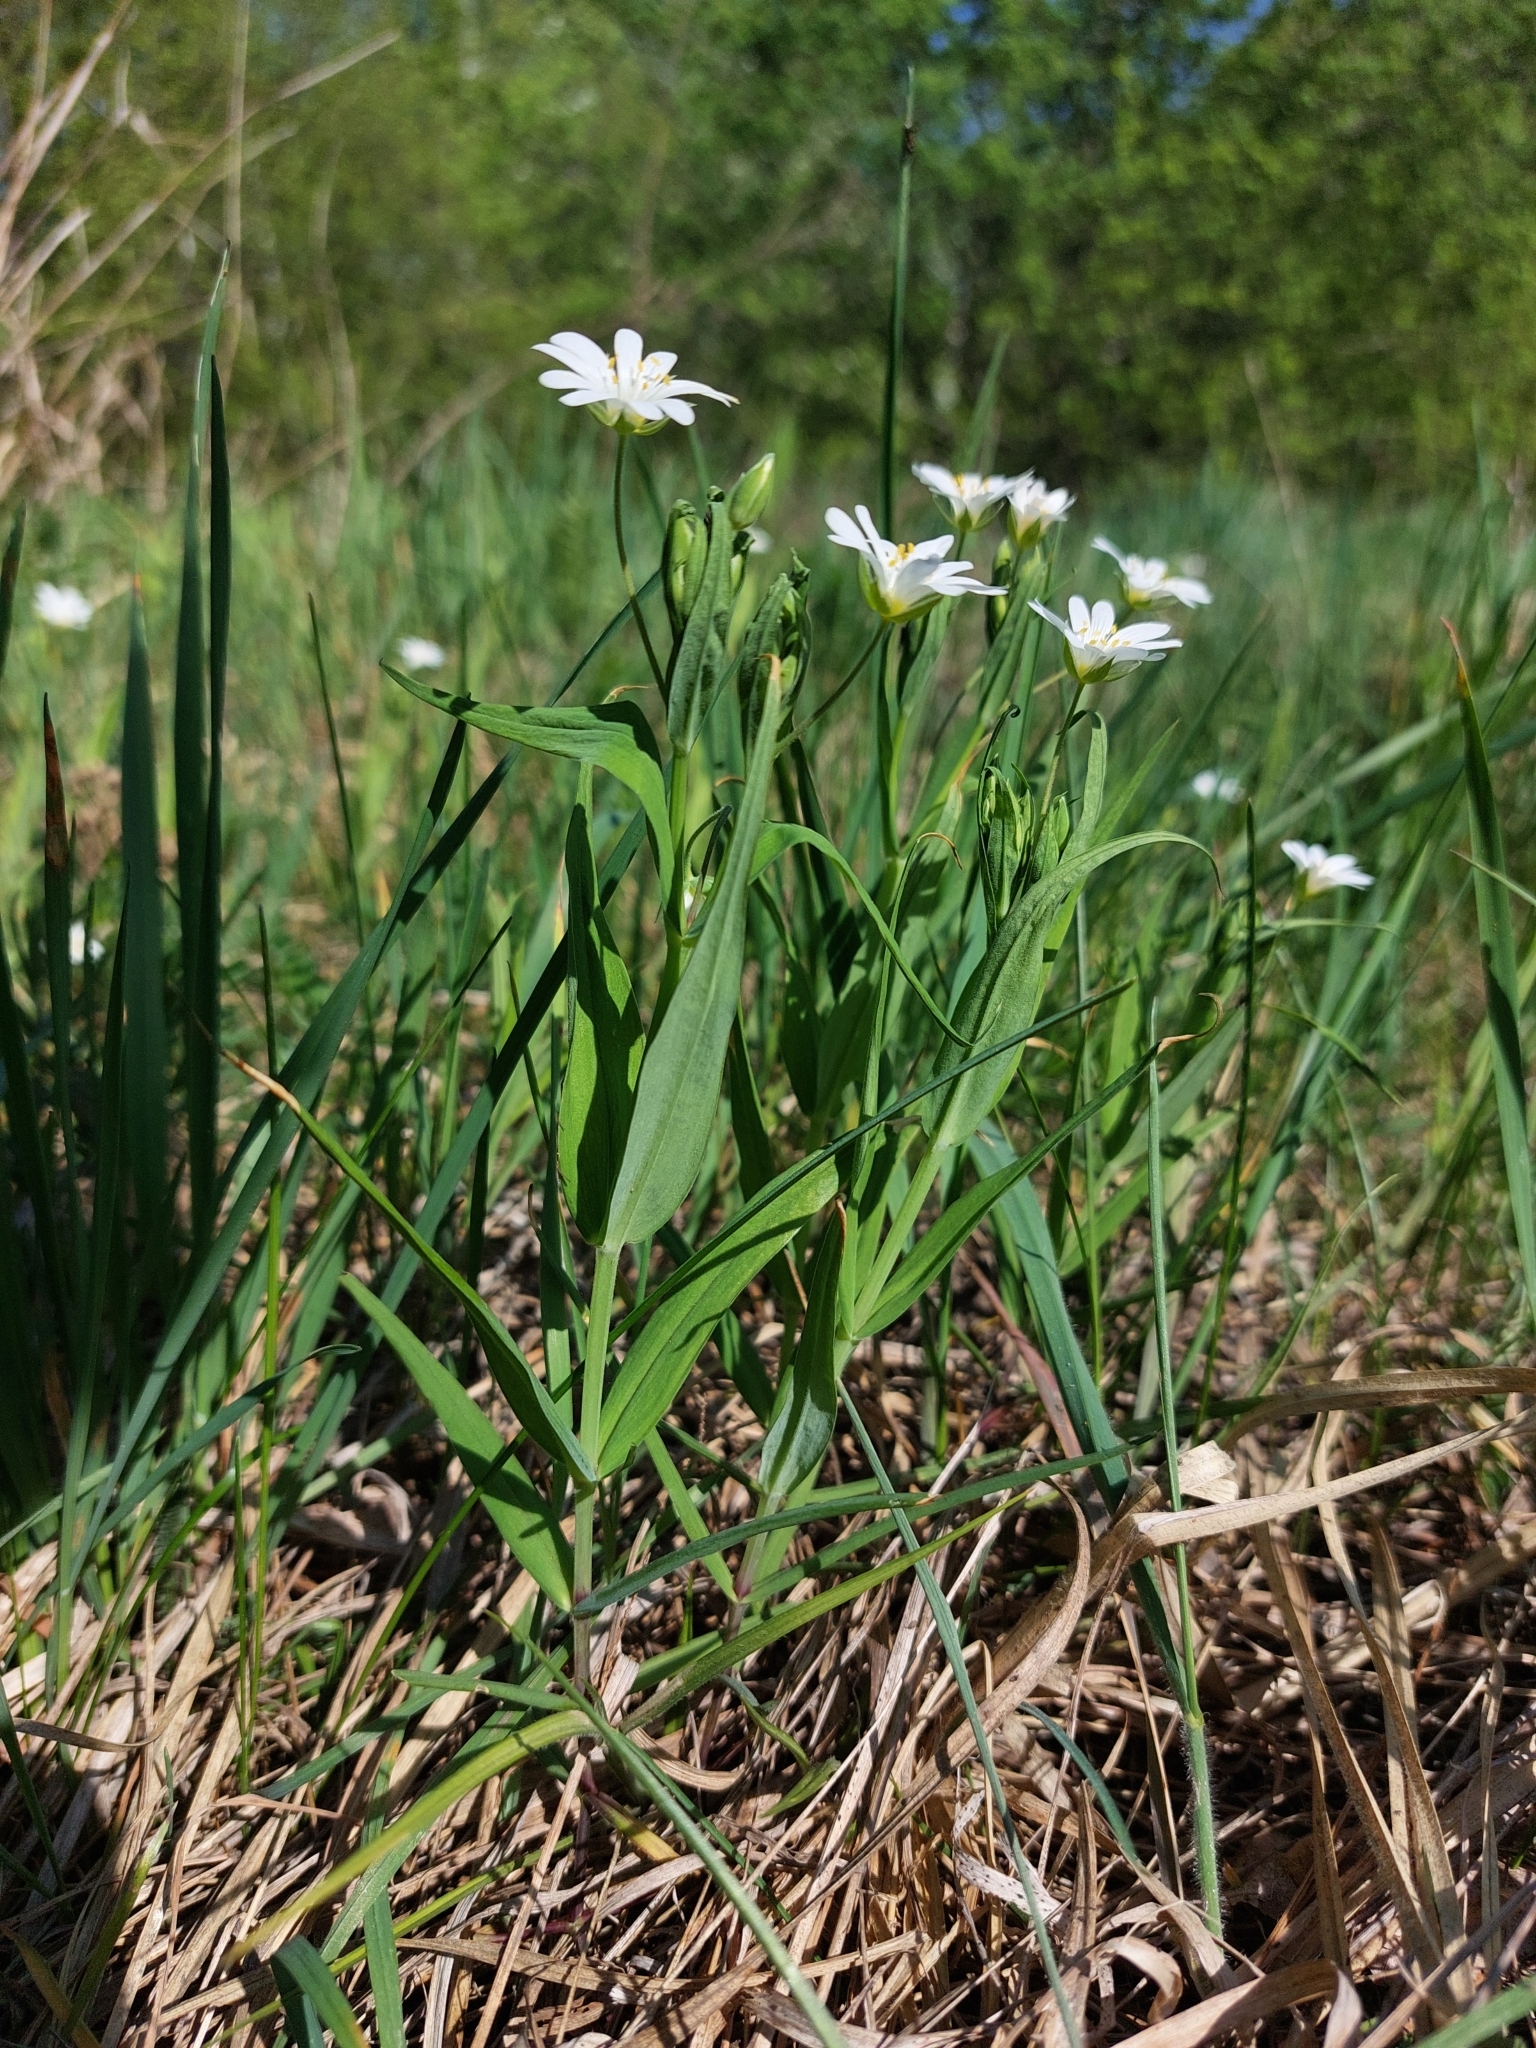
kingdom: Plantae
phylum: Tracheophyta
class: Magnoliopsida
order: Caryophyllales
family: Caryophyllaceae
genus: Rabelera
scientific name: Rabelera holostea
